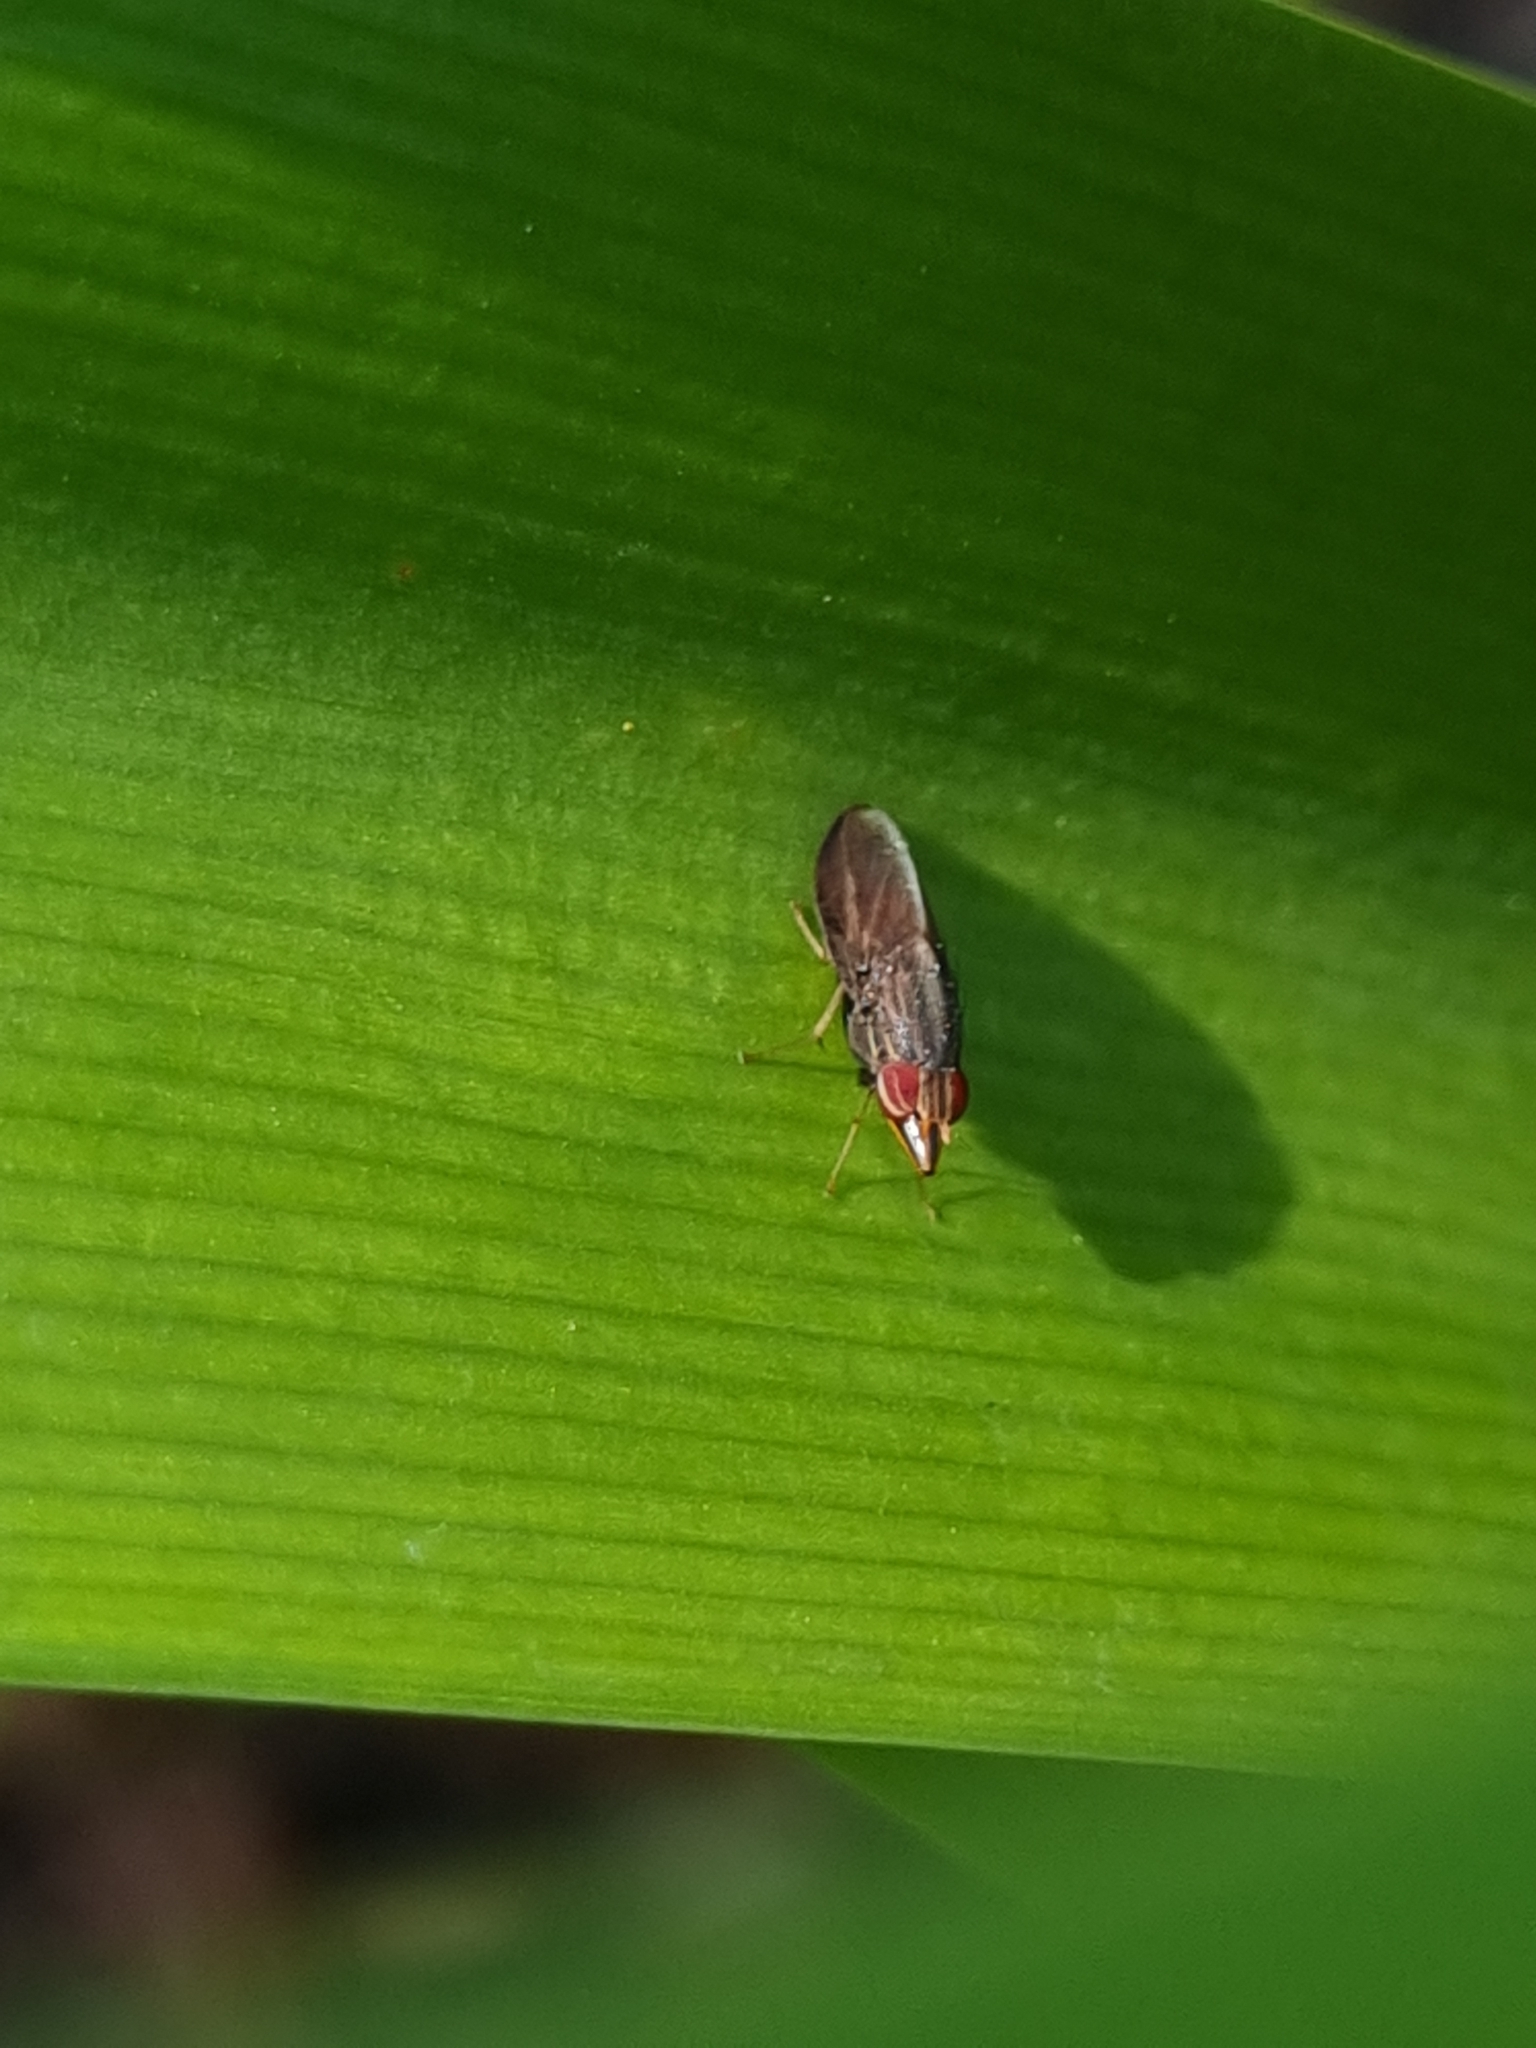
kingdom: Animalia
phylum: Arthropoda
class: Insecta
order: Diptera
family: Lauxaniidae
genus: Cephaloconus
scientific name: Cephaloconus tenebrosus
